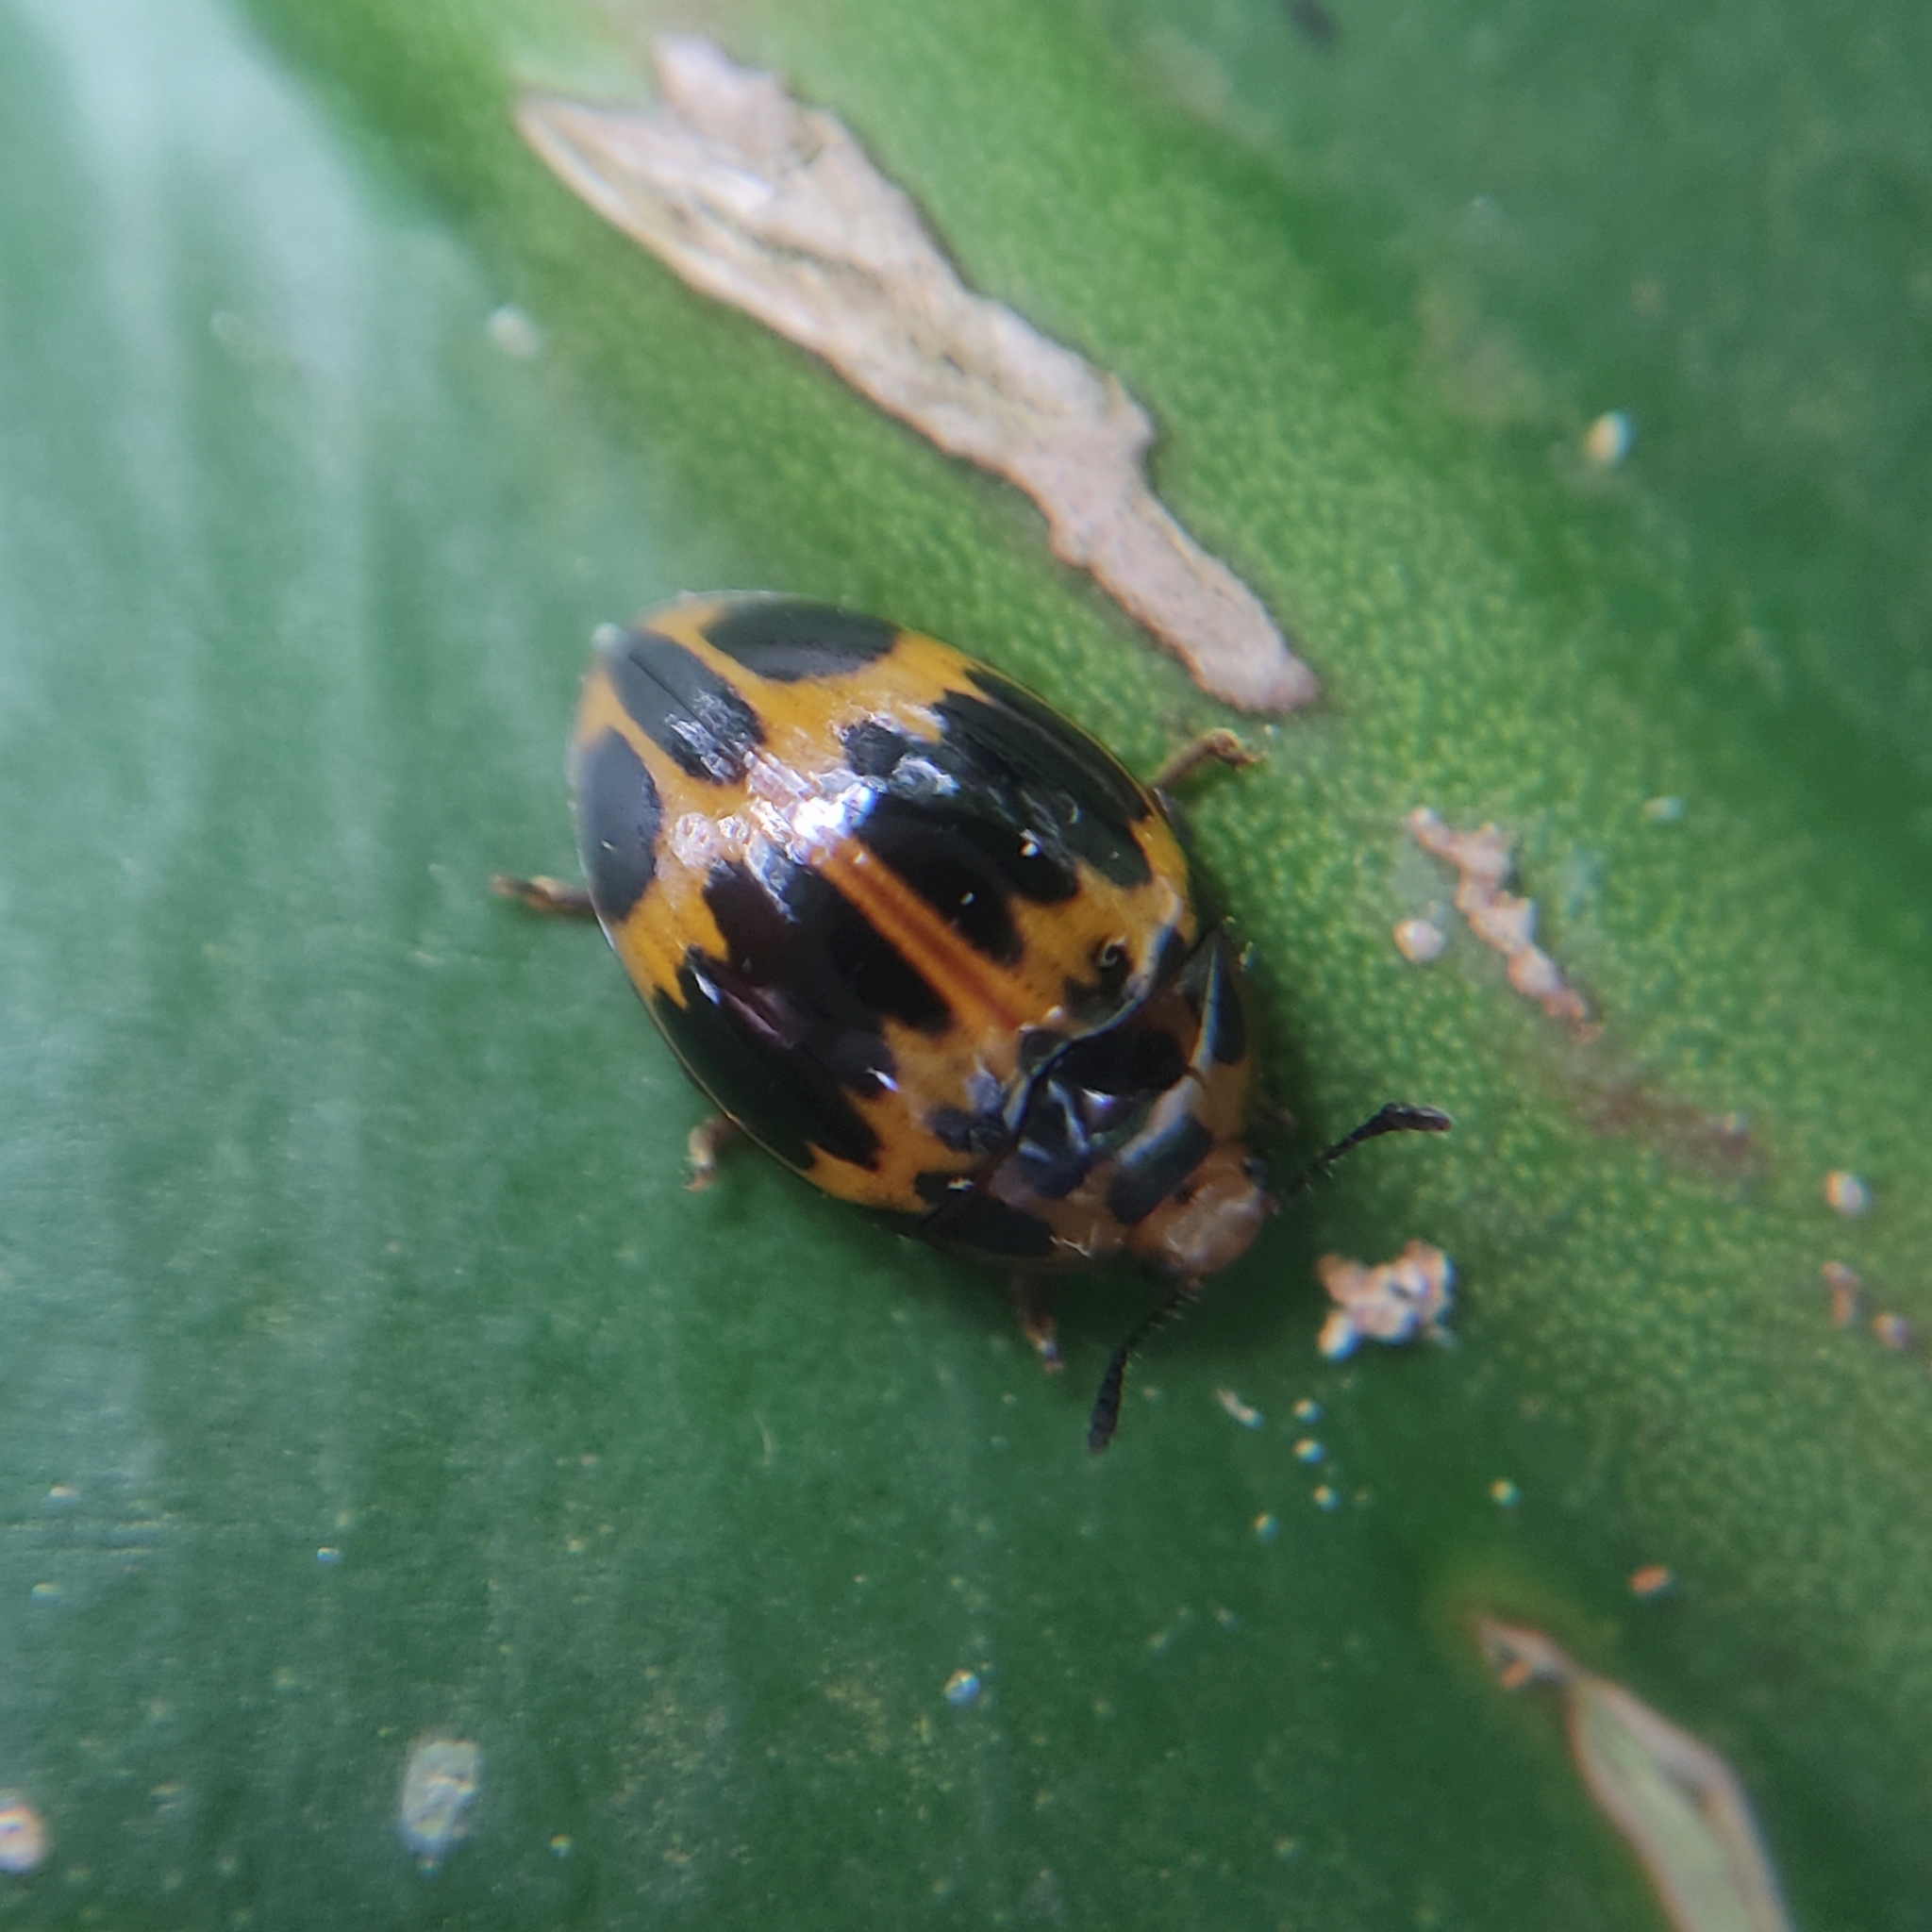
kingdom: Animalia
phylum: Arthropoda
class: Insecta
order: Coleoptera
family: Erotylidae
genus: Iphiclus
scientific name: Iphiclus
